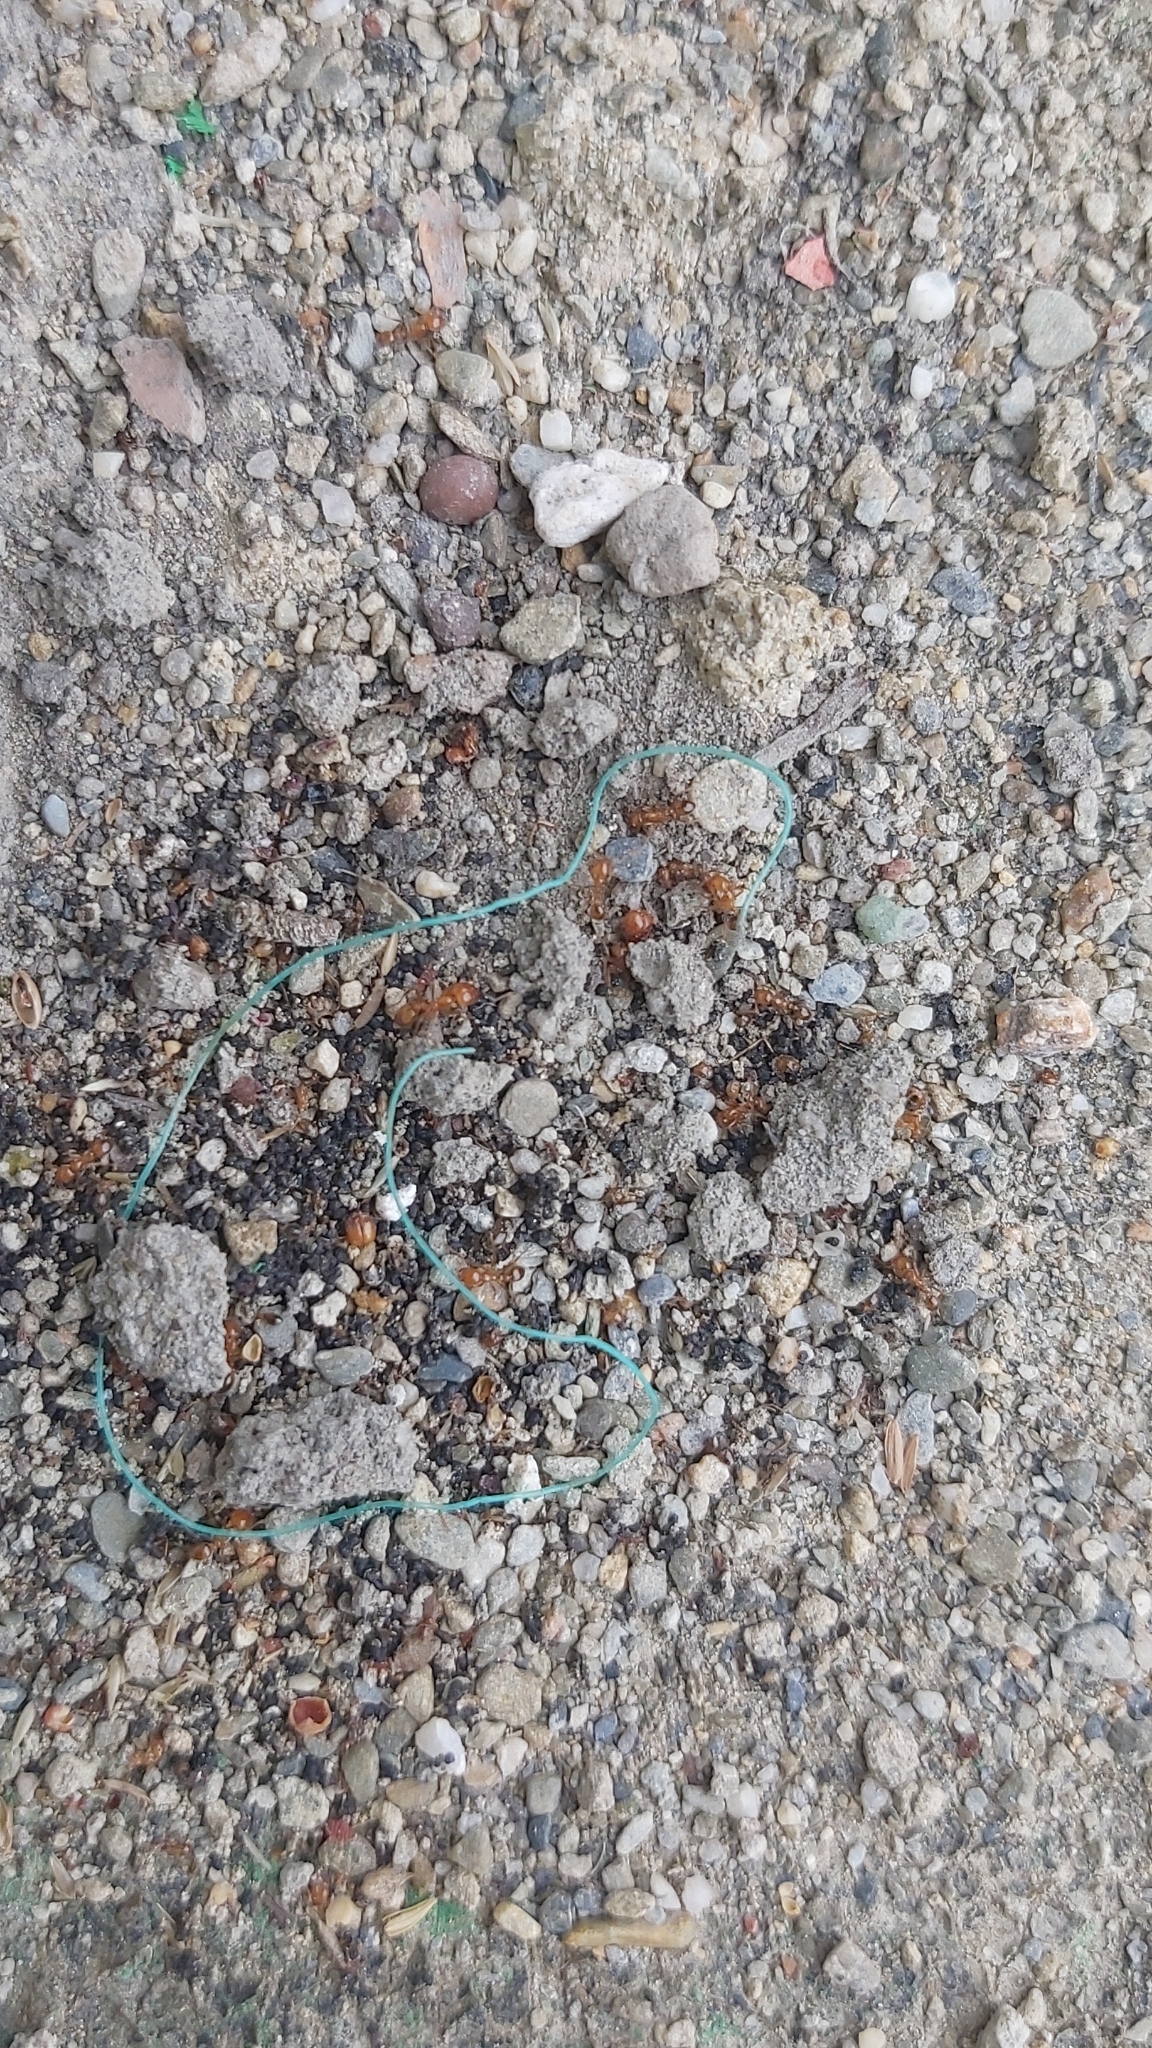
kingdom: Animalia
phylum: Arthropoda
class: Insecta
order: Hymenoptera
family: Formicidae
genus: Solenopsis
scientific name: Solenopsis geminata
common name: Tropical fire ant
